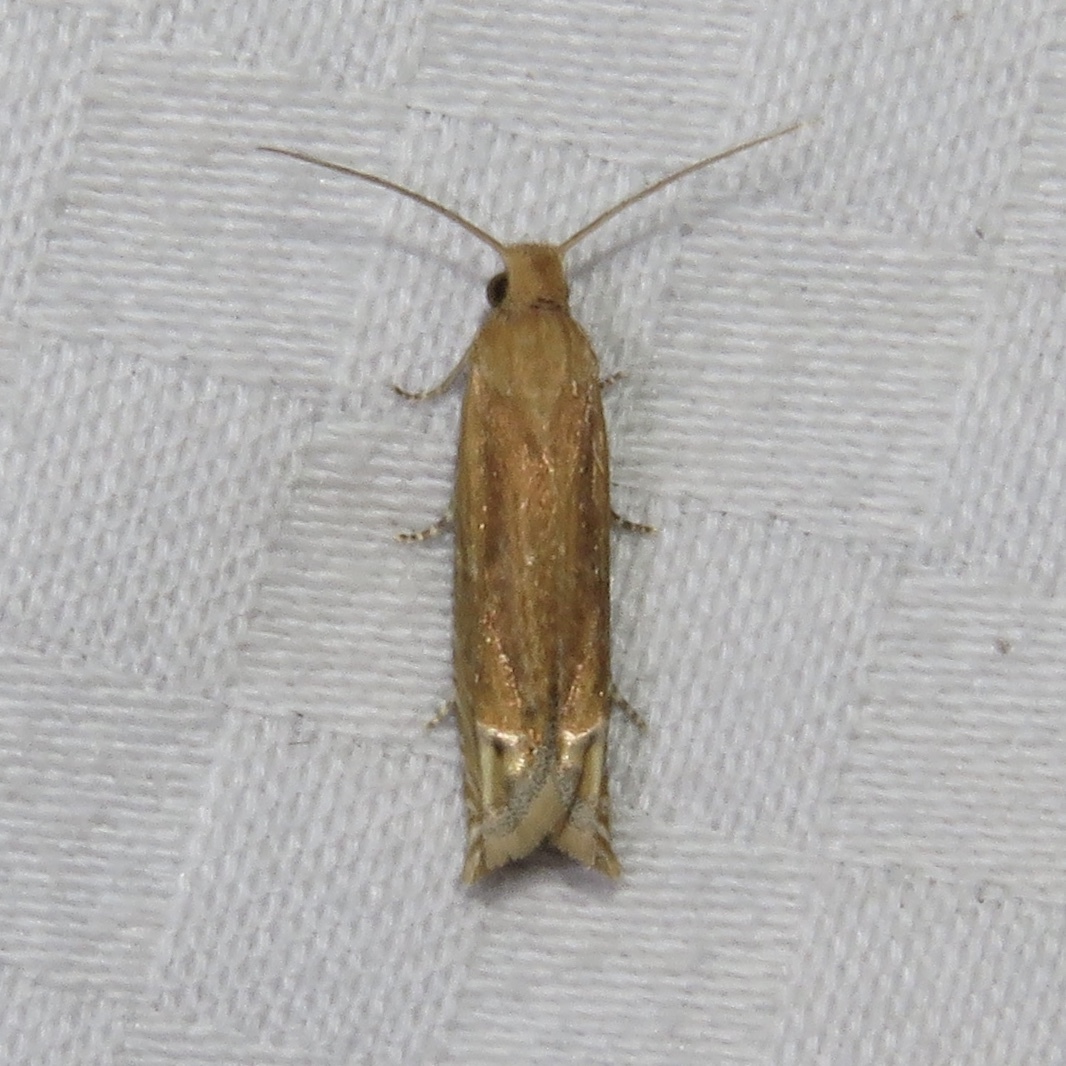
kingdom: Animalia
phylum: Arthropoda
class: Insecta
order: Lepidoptera
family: Tortricidae
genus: Pelochrista
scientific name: Pelochrista cataclystiana
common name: Goldenrod pelochrista moth
